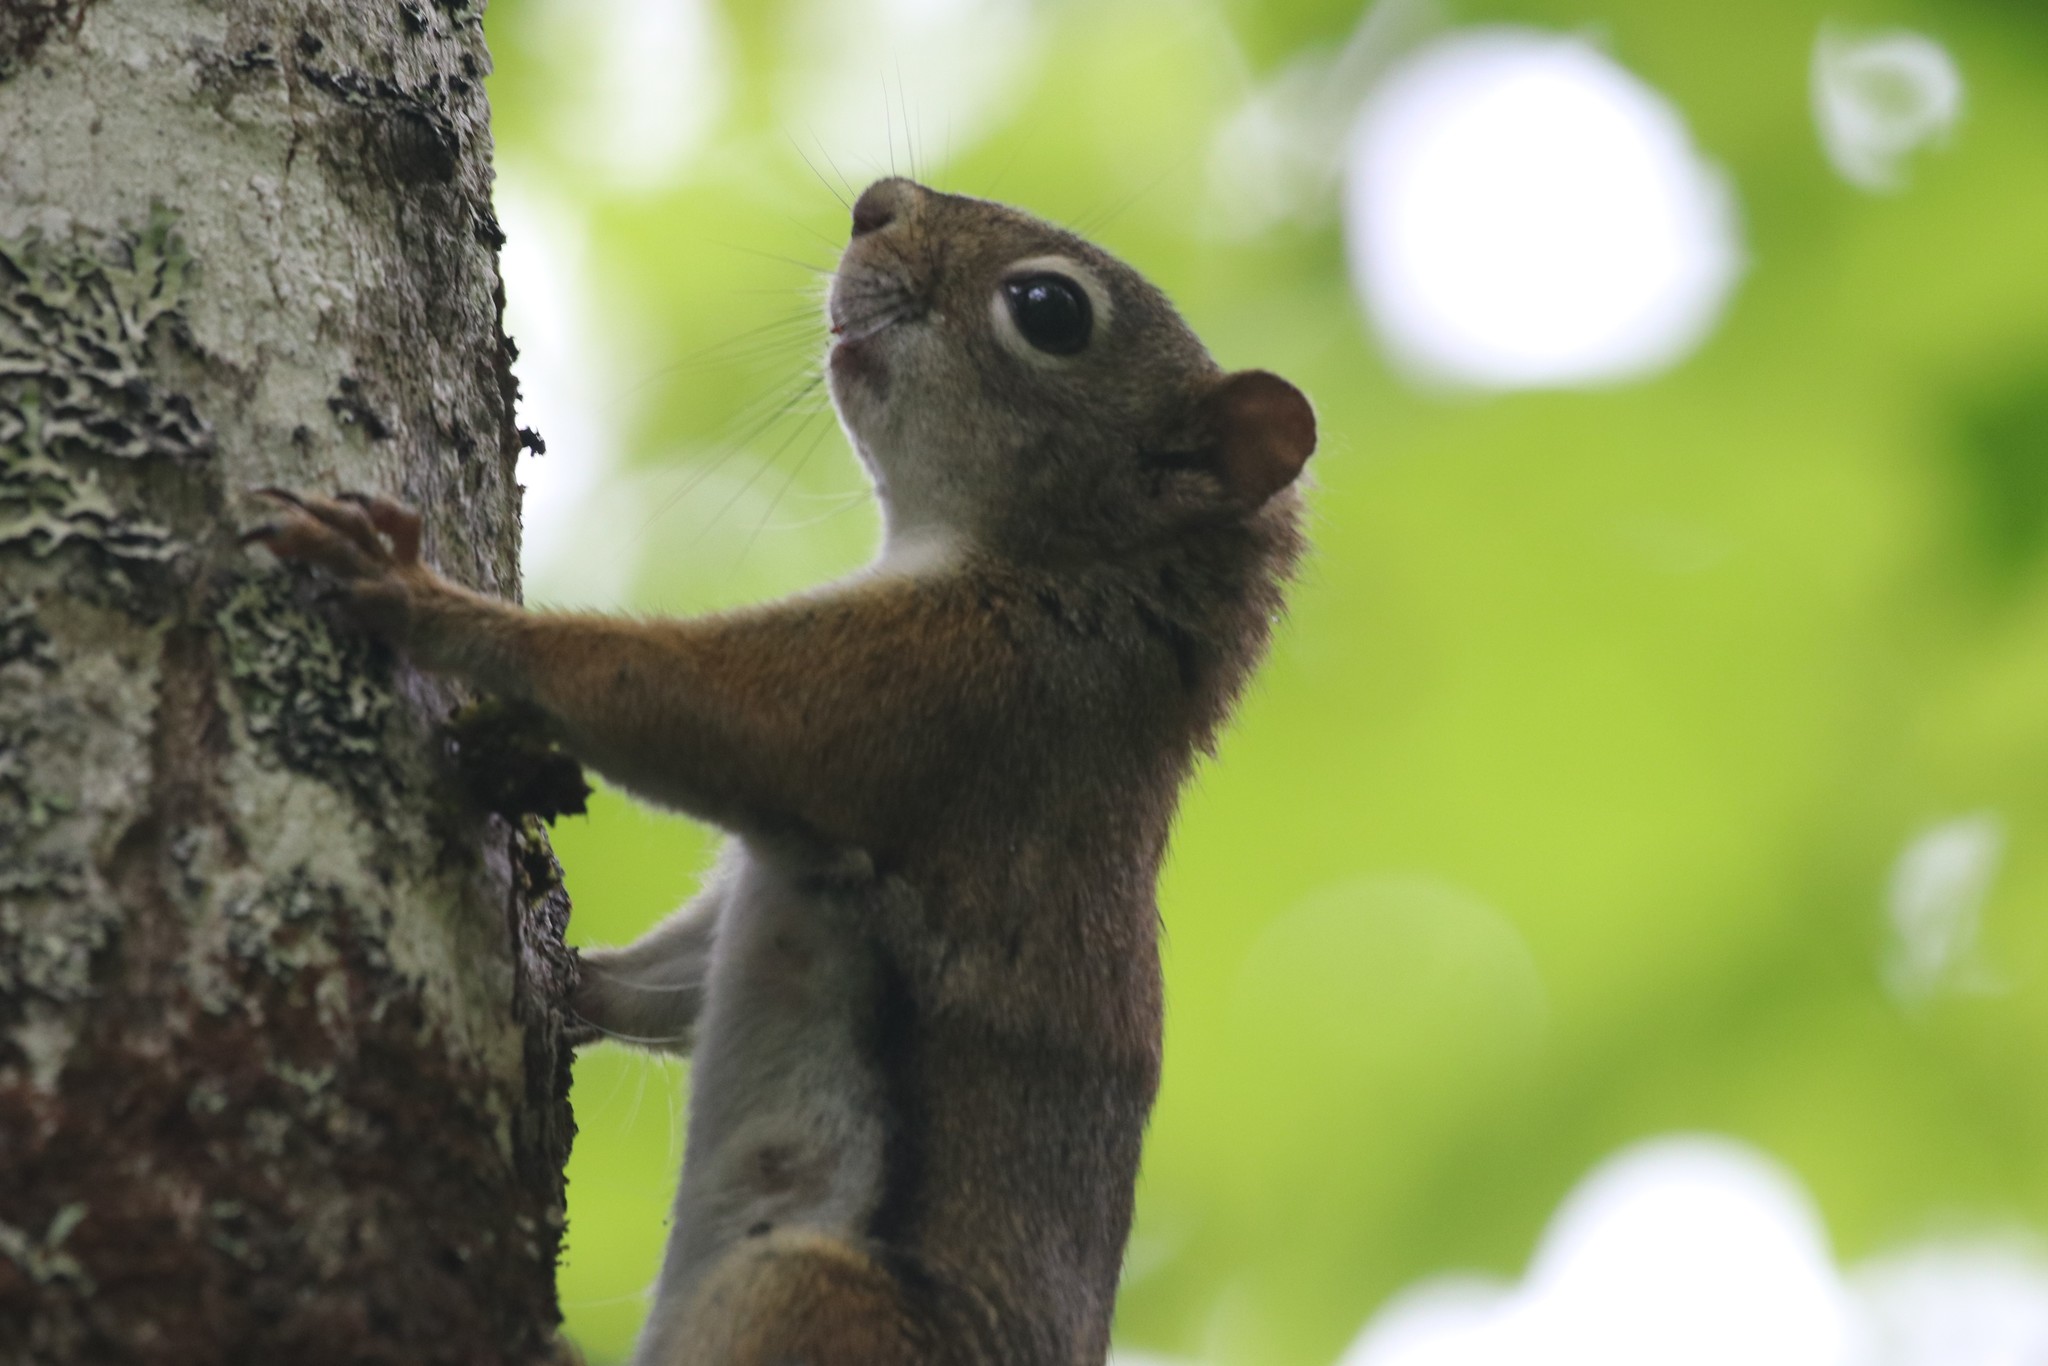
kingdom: Animalia
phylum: Chordata
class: Mammalia
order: Rodentia
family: Sciuridae
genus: Tamiasciurus
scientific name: Tamiasciurus hudsonicus
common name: Red squirrel
